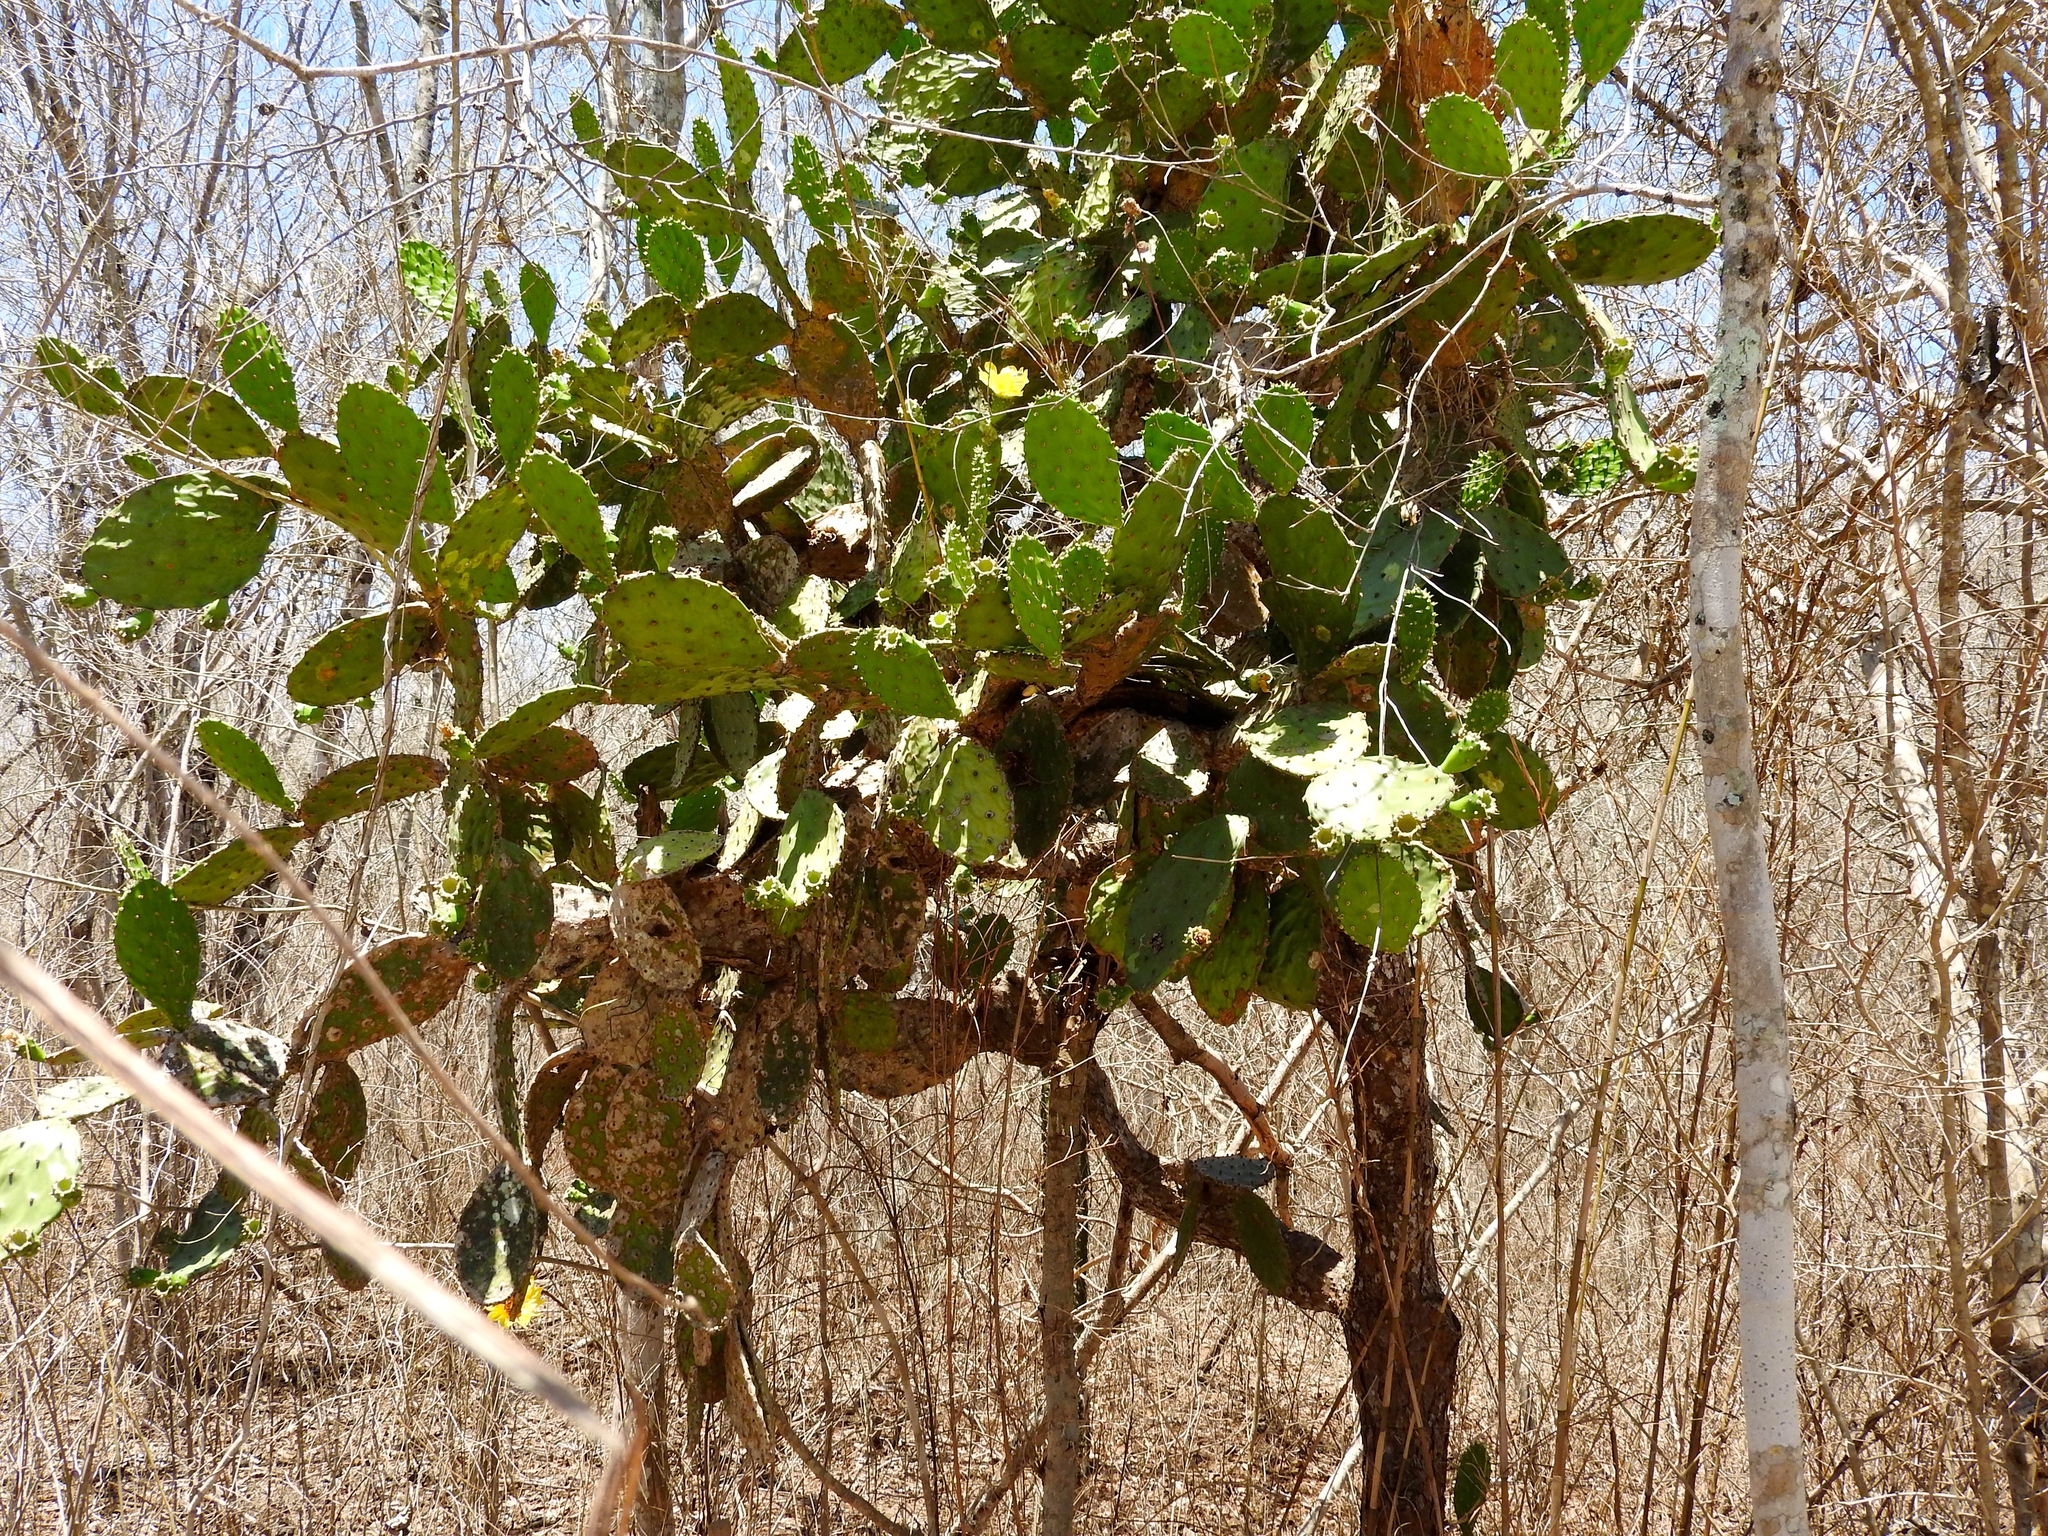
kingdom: Plantae
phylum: Tracheophyta
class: Magnoliopsida
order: Caryophyllales
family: Cactaceae
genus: Opuntia
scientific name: Opuntia
